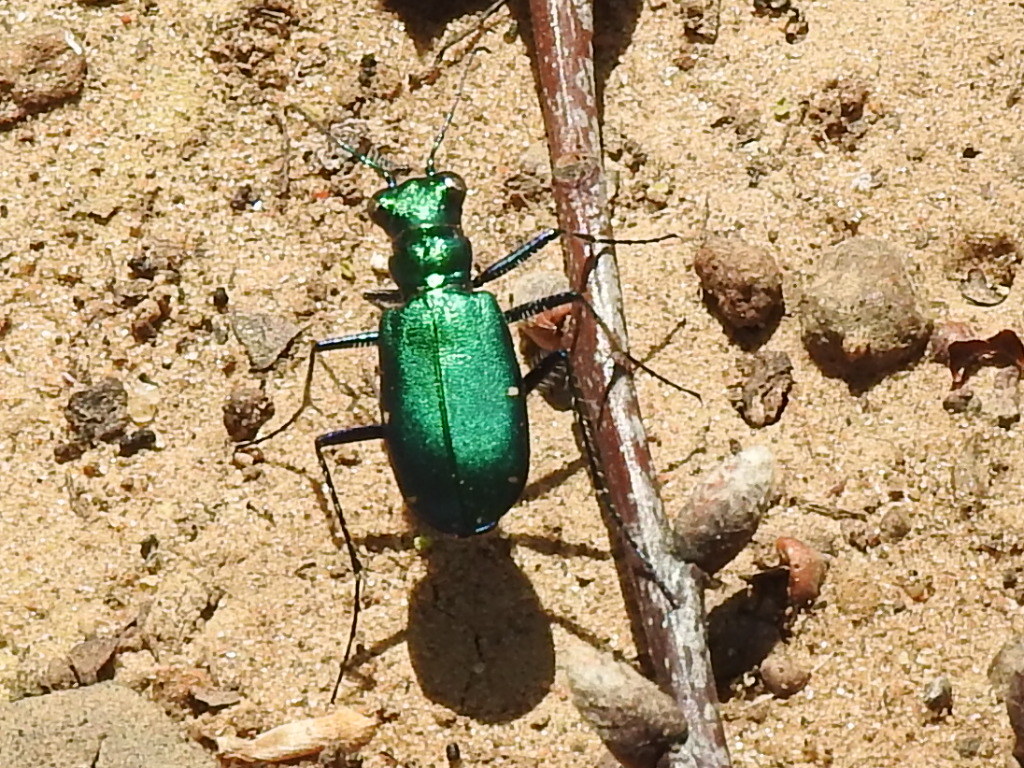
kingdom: Animalia
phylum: Arthropoda
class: Insecta
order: Coleoptera
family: Carabidae
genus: Cicindela
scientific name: Cicindela sexguttata
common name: Six-spotted tiger beetle
